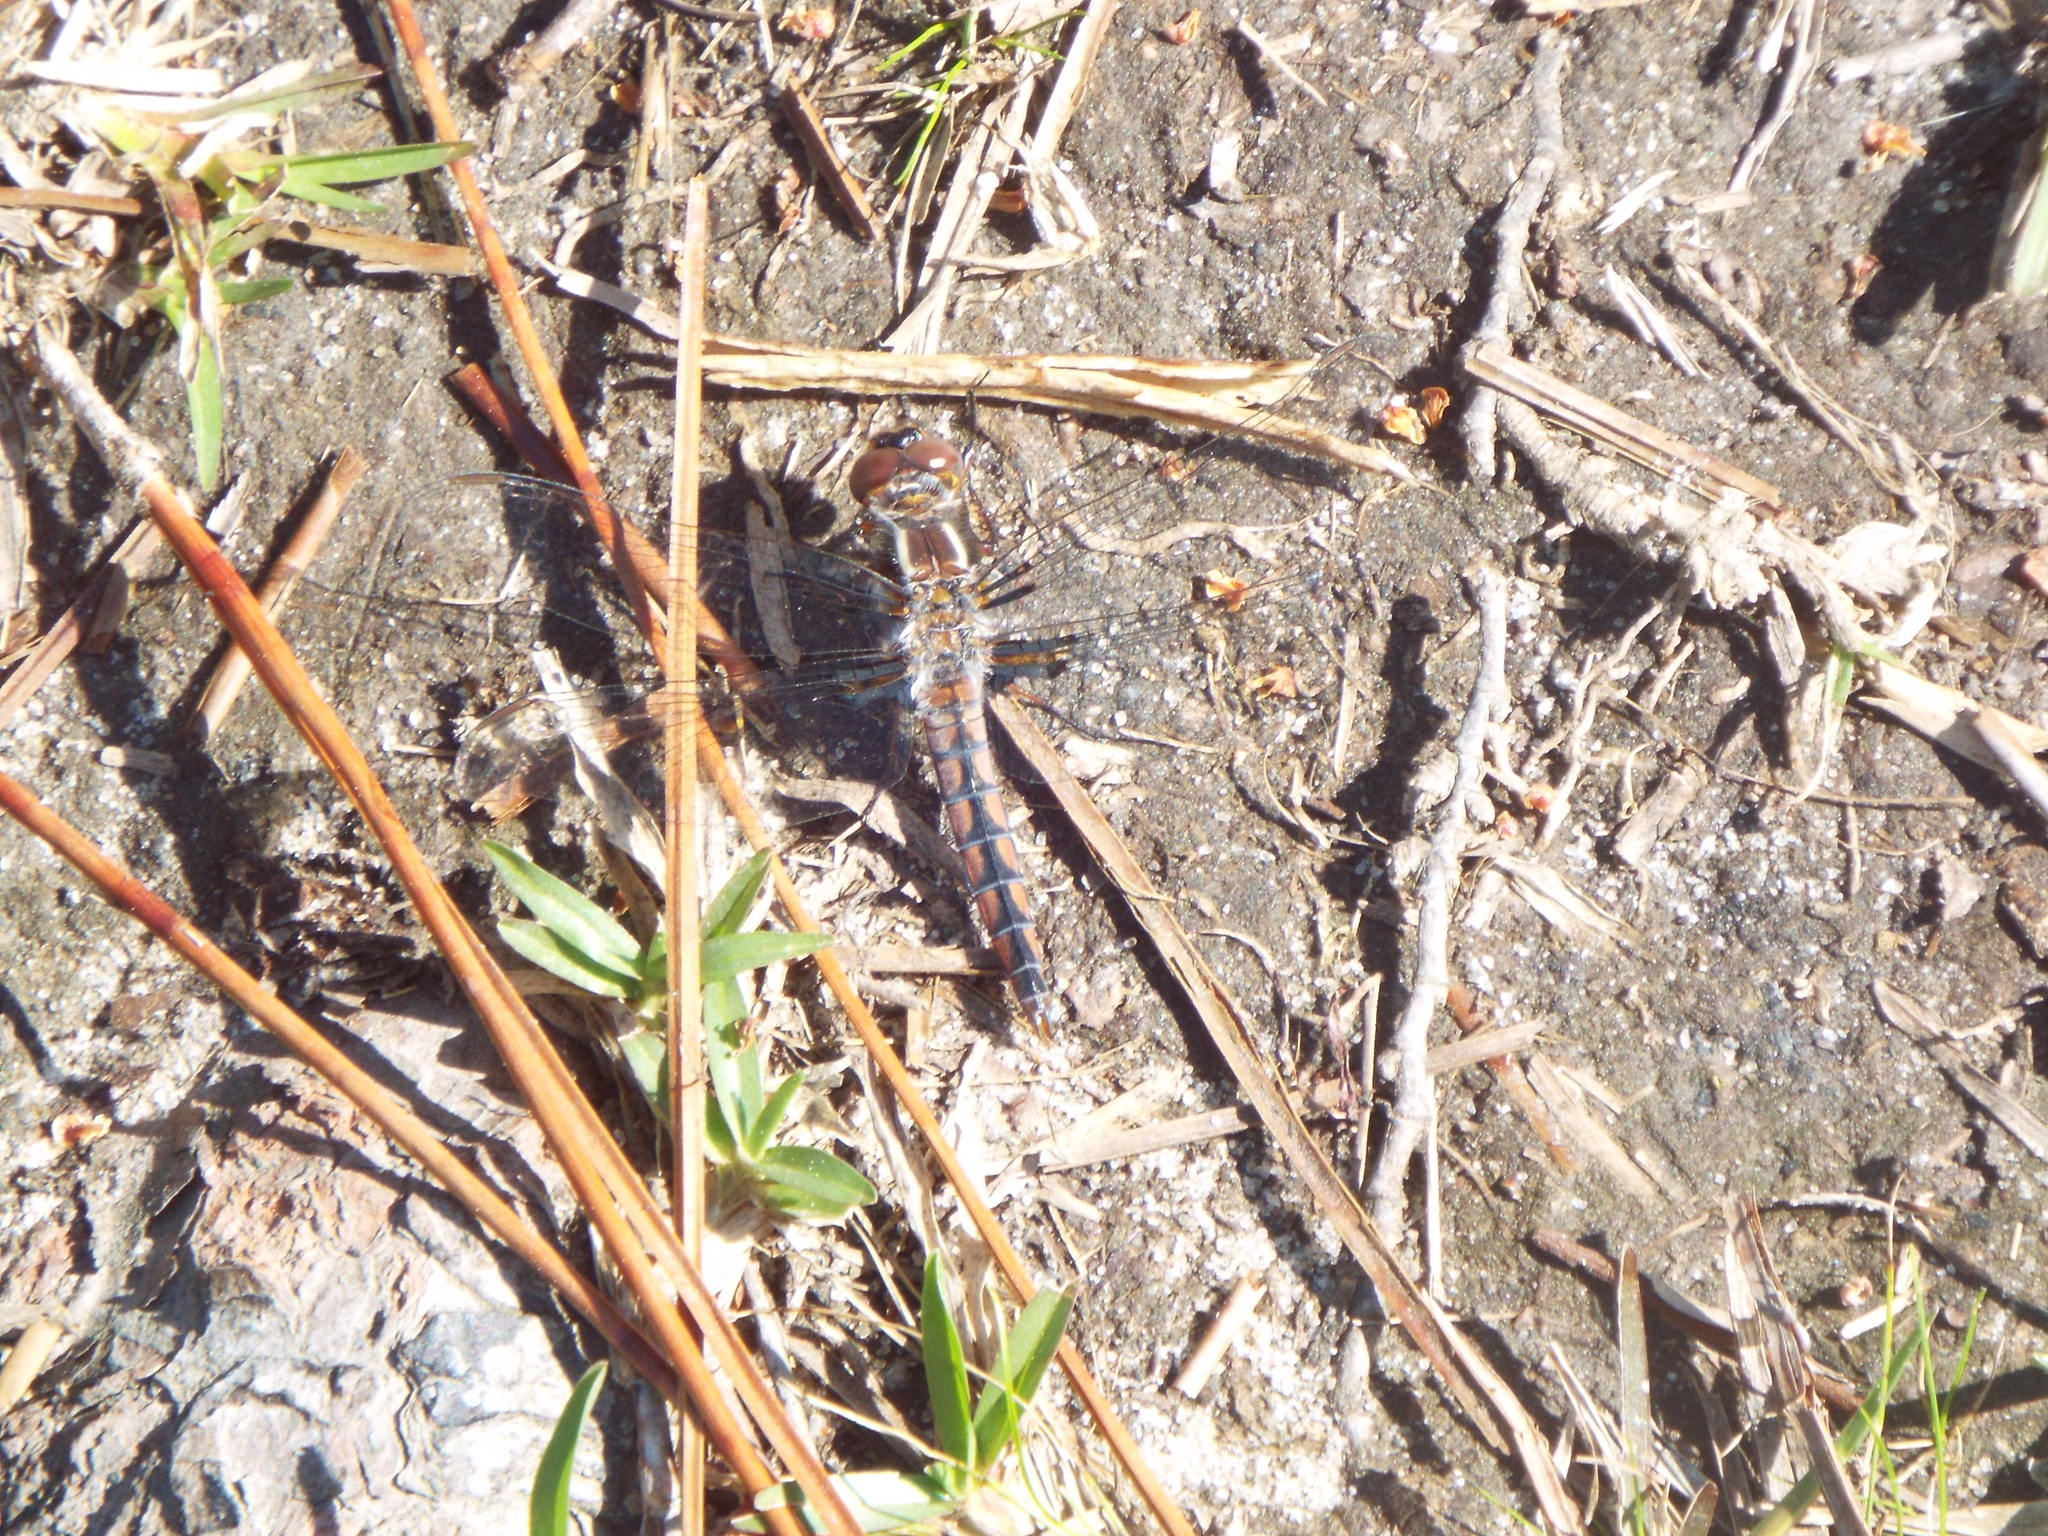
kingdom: Animalia
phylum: Arthropoda
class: Insecta
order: Odonata
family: Libellulidae
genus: Ladona
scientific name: Ladona deplanata
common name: Blue corporal
